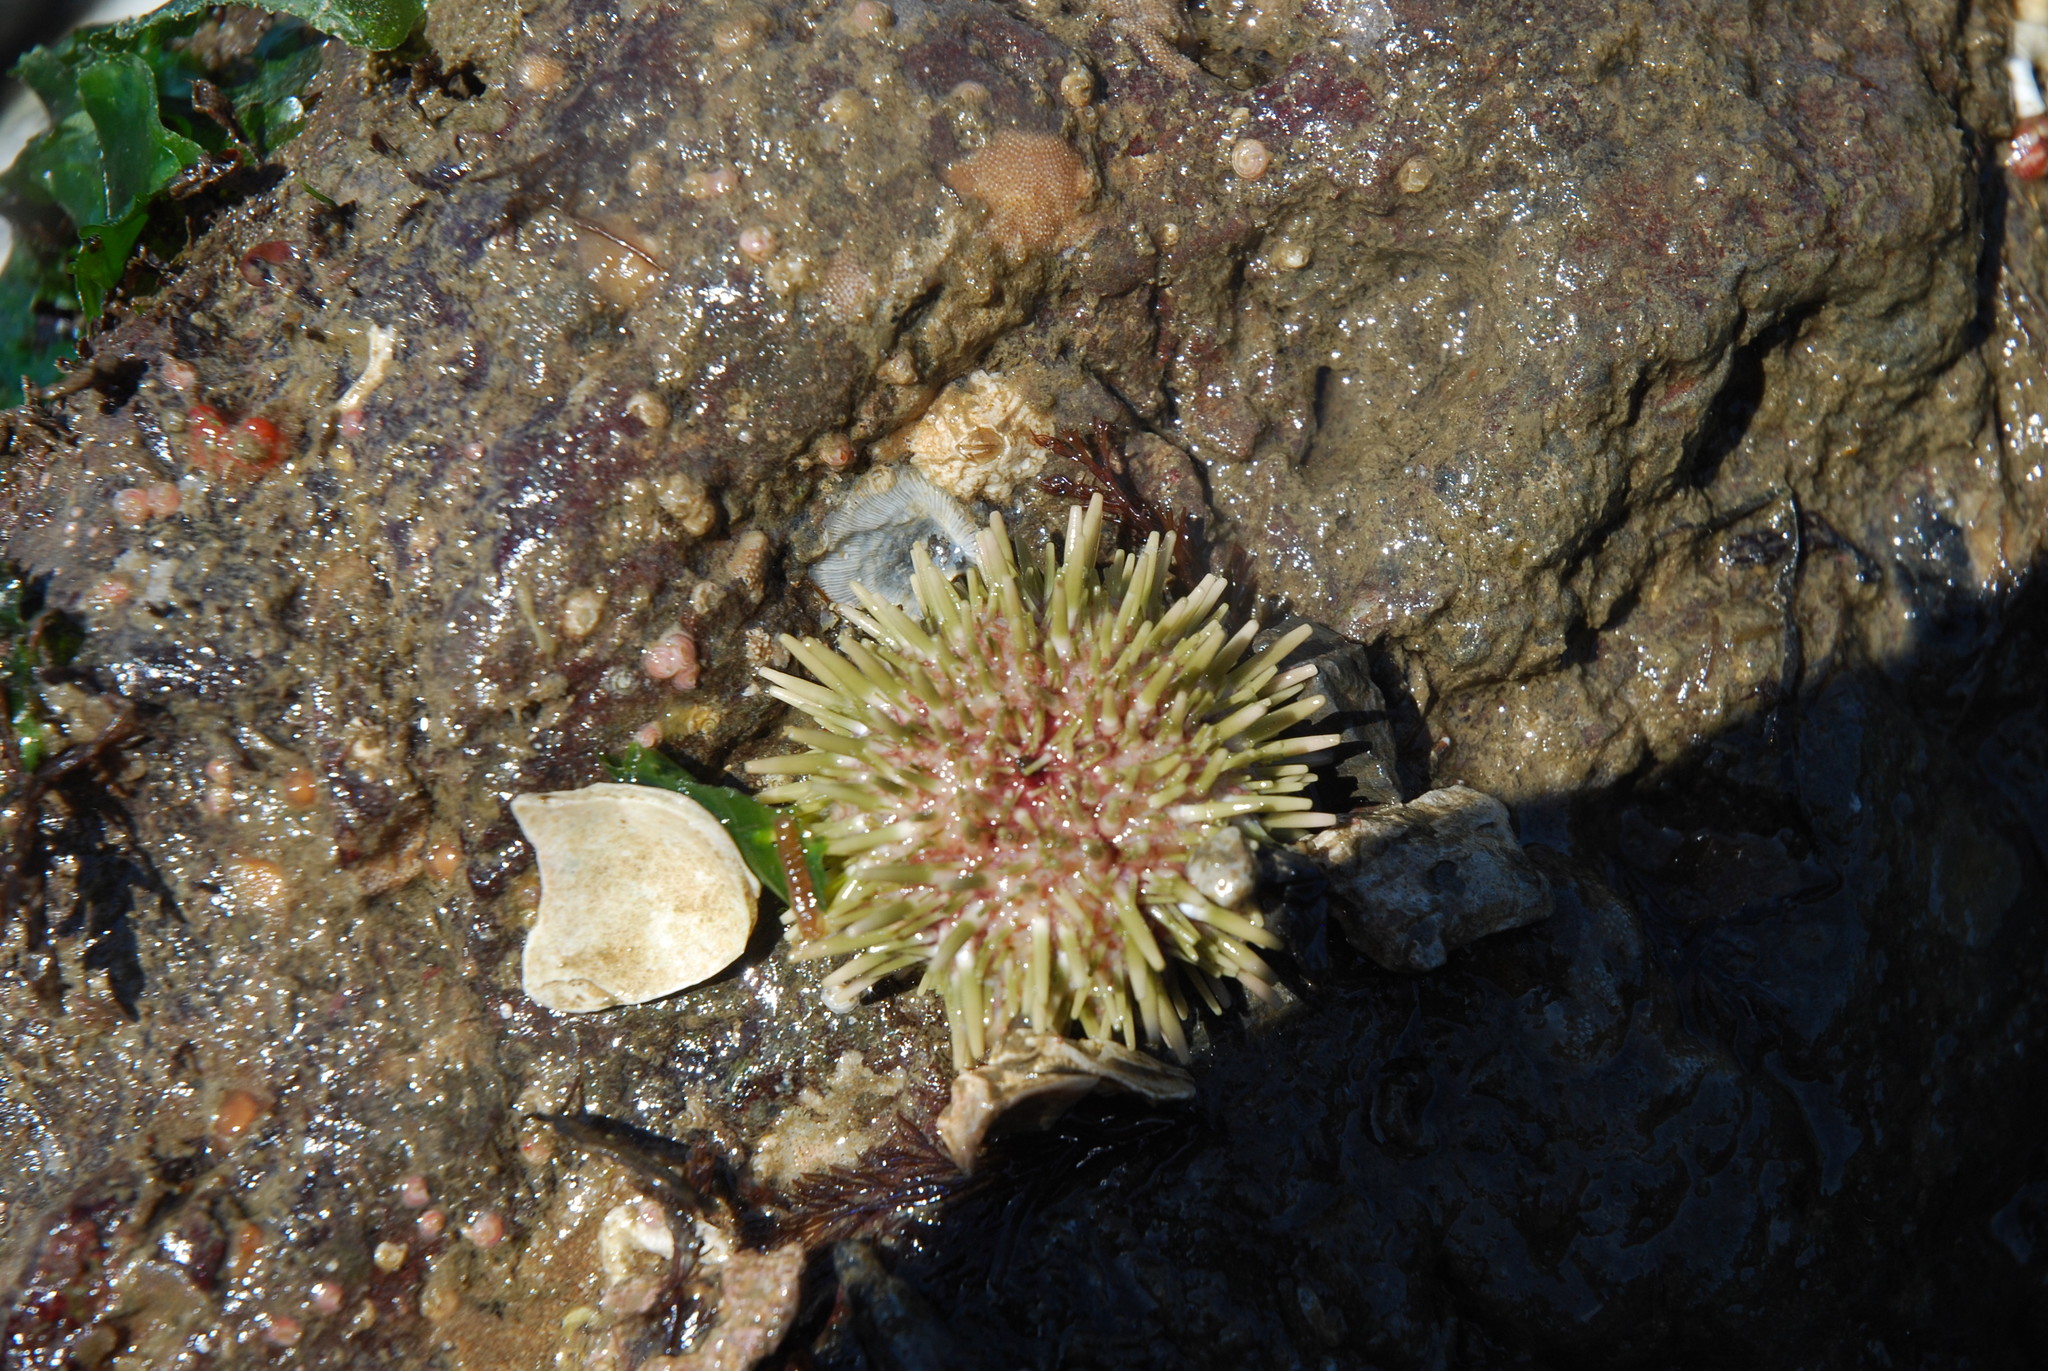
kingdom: Animalia
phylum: Echinodermata
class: Echinoidea
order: Camarodonta
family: Strongylocentrotidae
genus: Strongylocentrotus
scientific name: Strongylocentrotus droebachiensis
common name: Northern sea urchin
